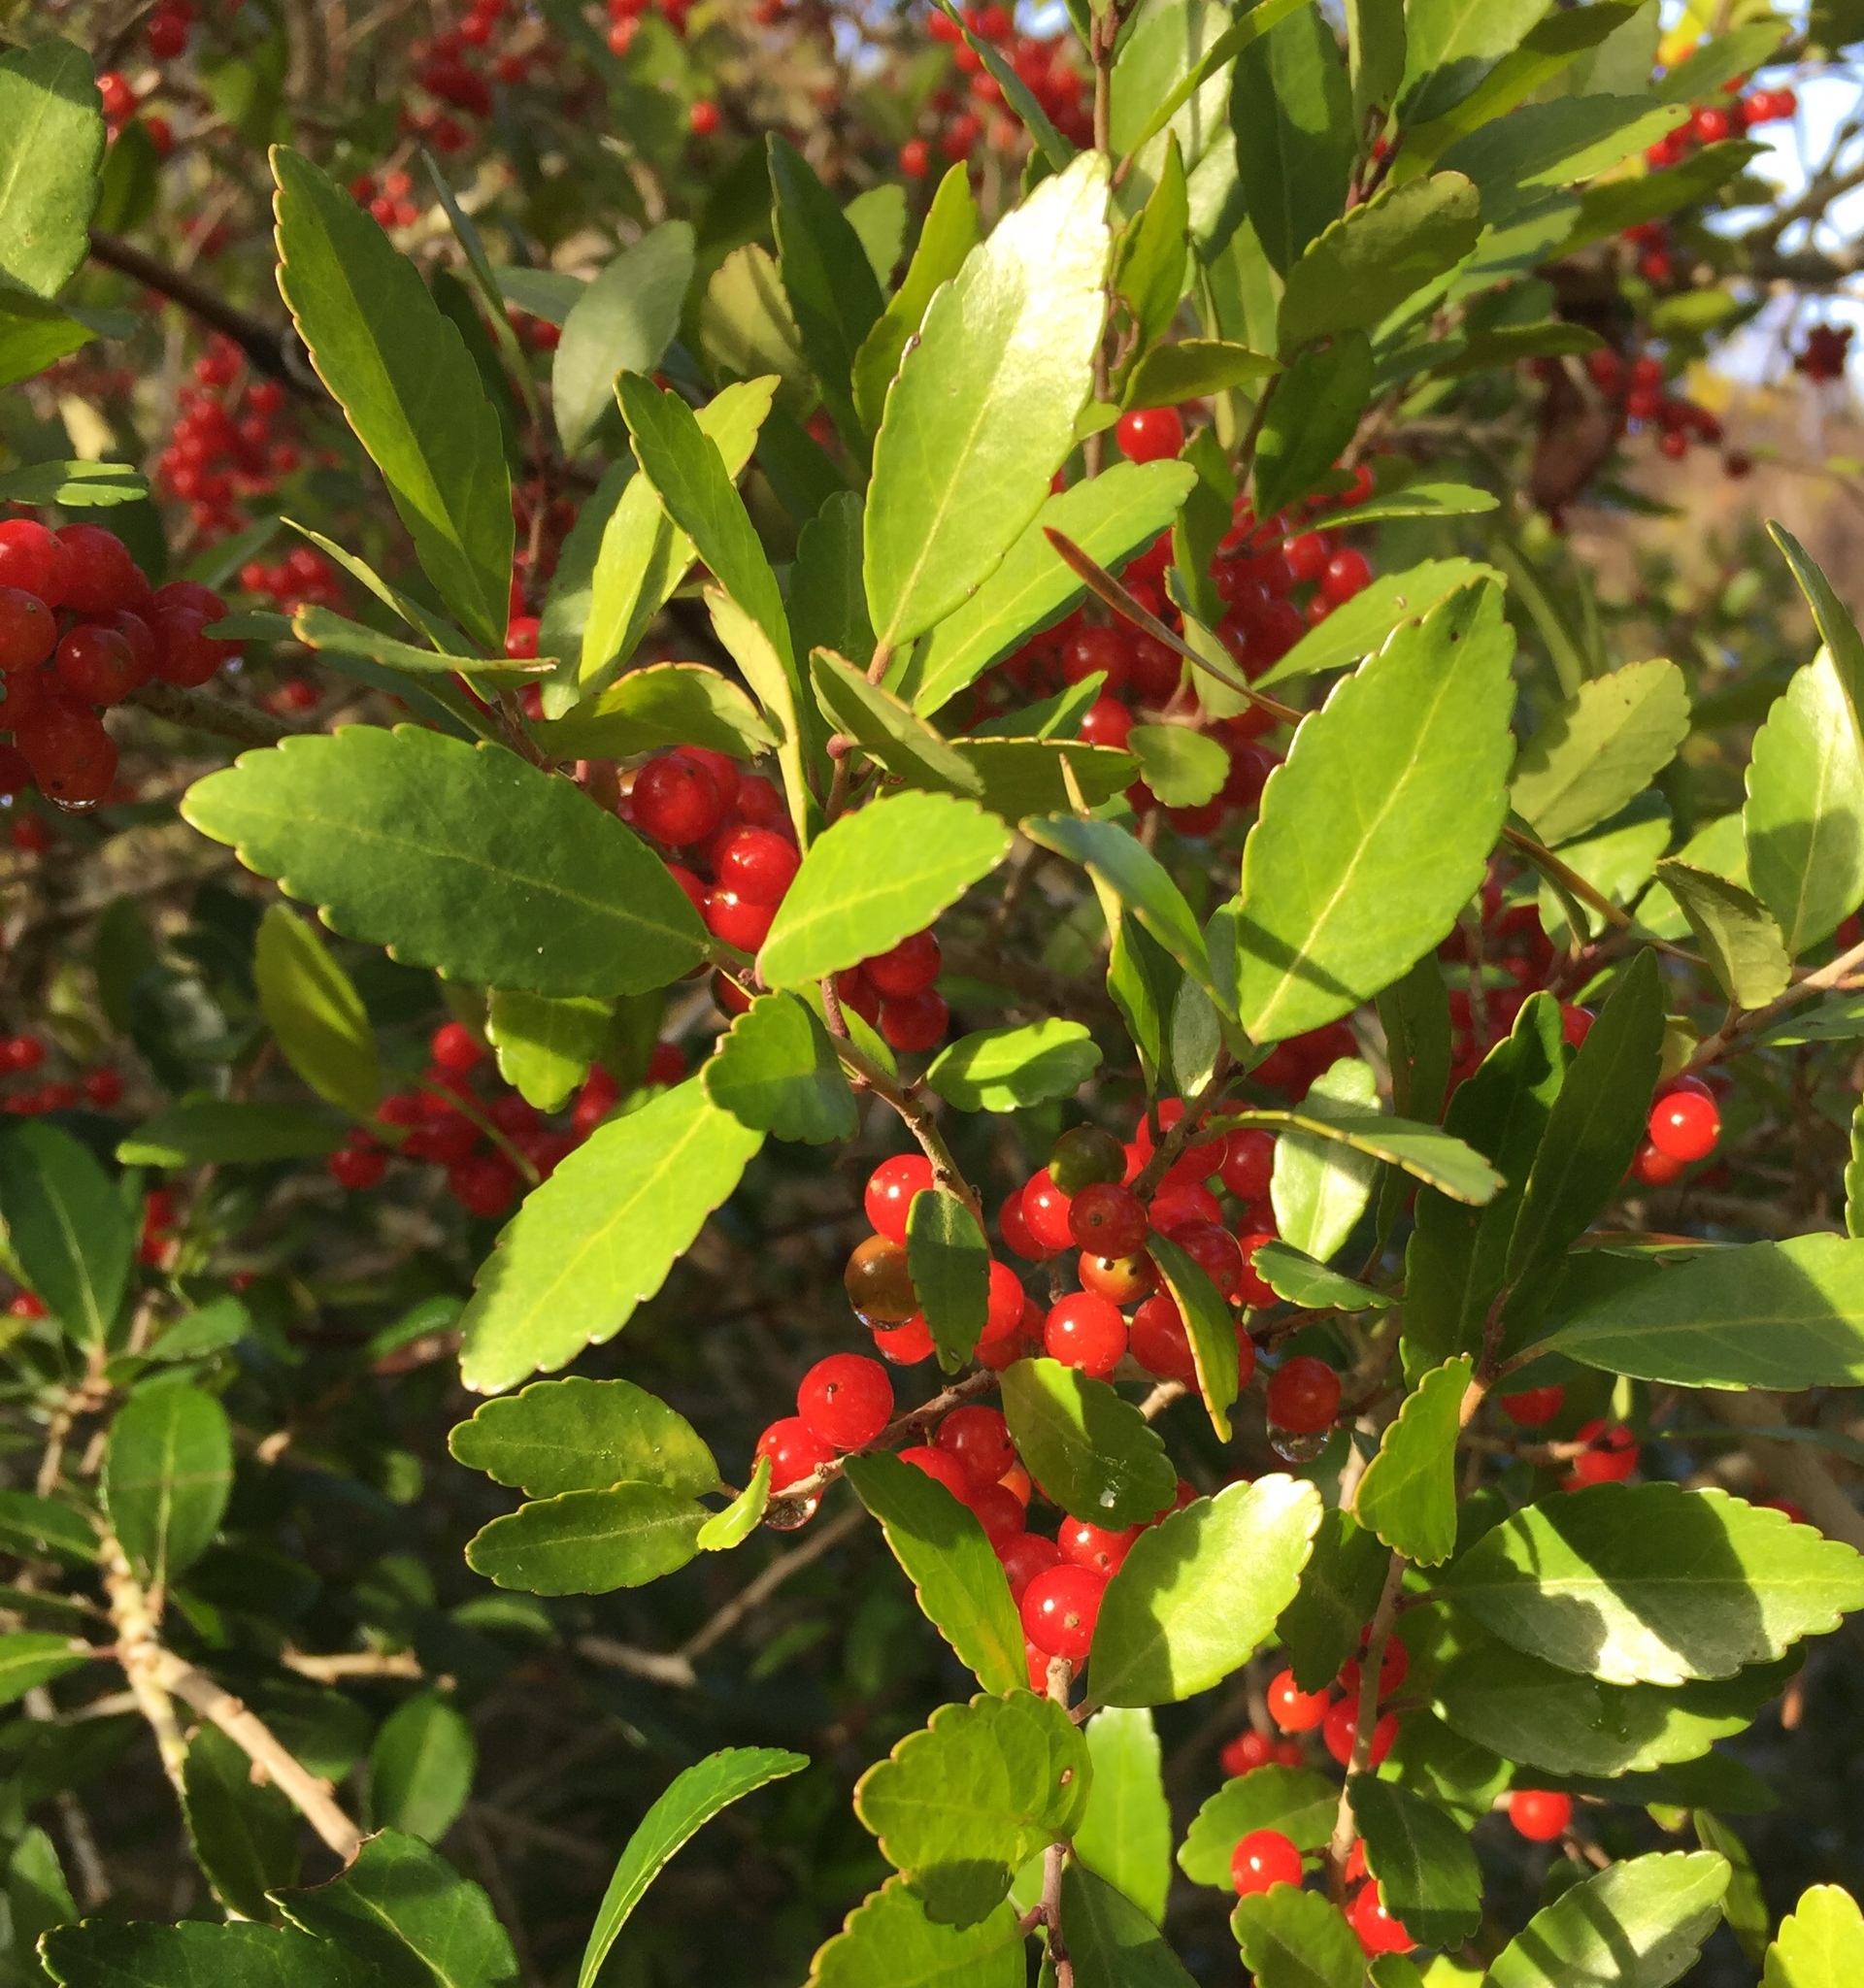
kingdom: Plantae
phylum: Tracheophyta
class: Magnoliopsida
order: Aquifoliales
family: Aquifoliaceae
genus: Ilex
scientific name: Ilex vomitoria
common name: Yaupon holly
